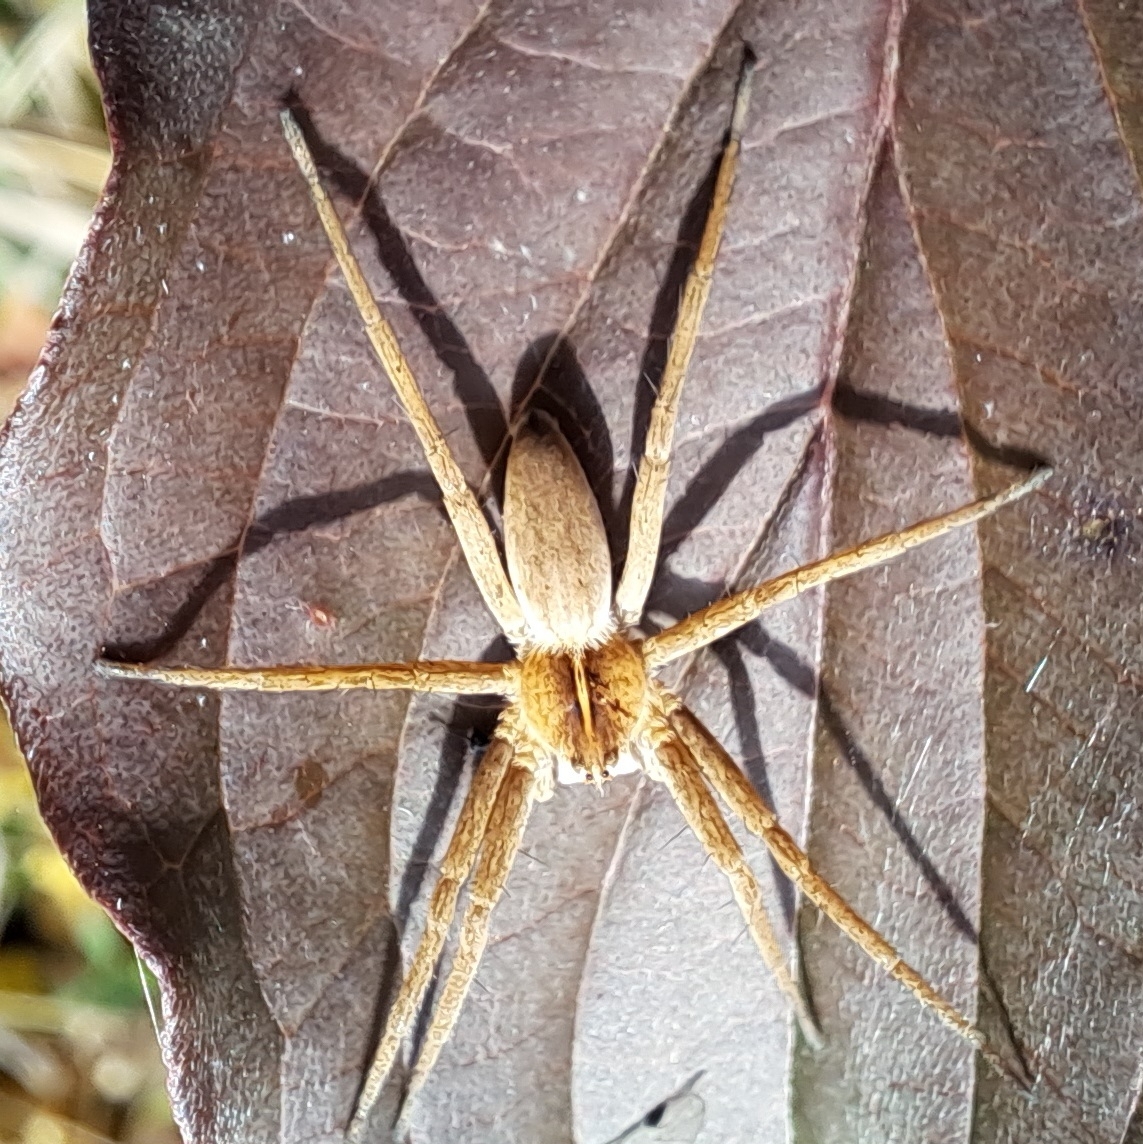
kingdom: Animalia
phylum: Arthropoda
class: Arachnida
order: Araneae
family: Pisauridae
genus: Pisaura
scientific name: Pisaura mirabilis
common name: Tent spider
